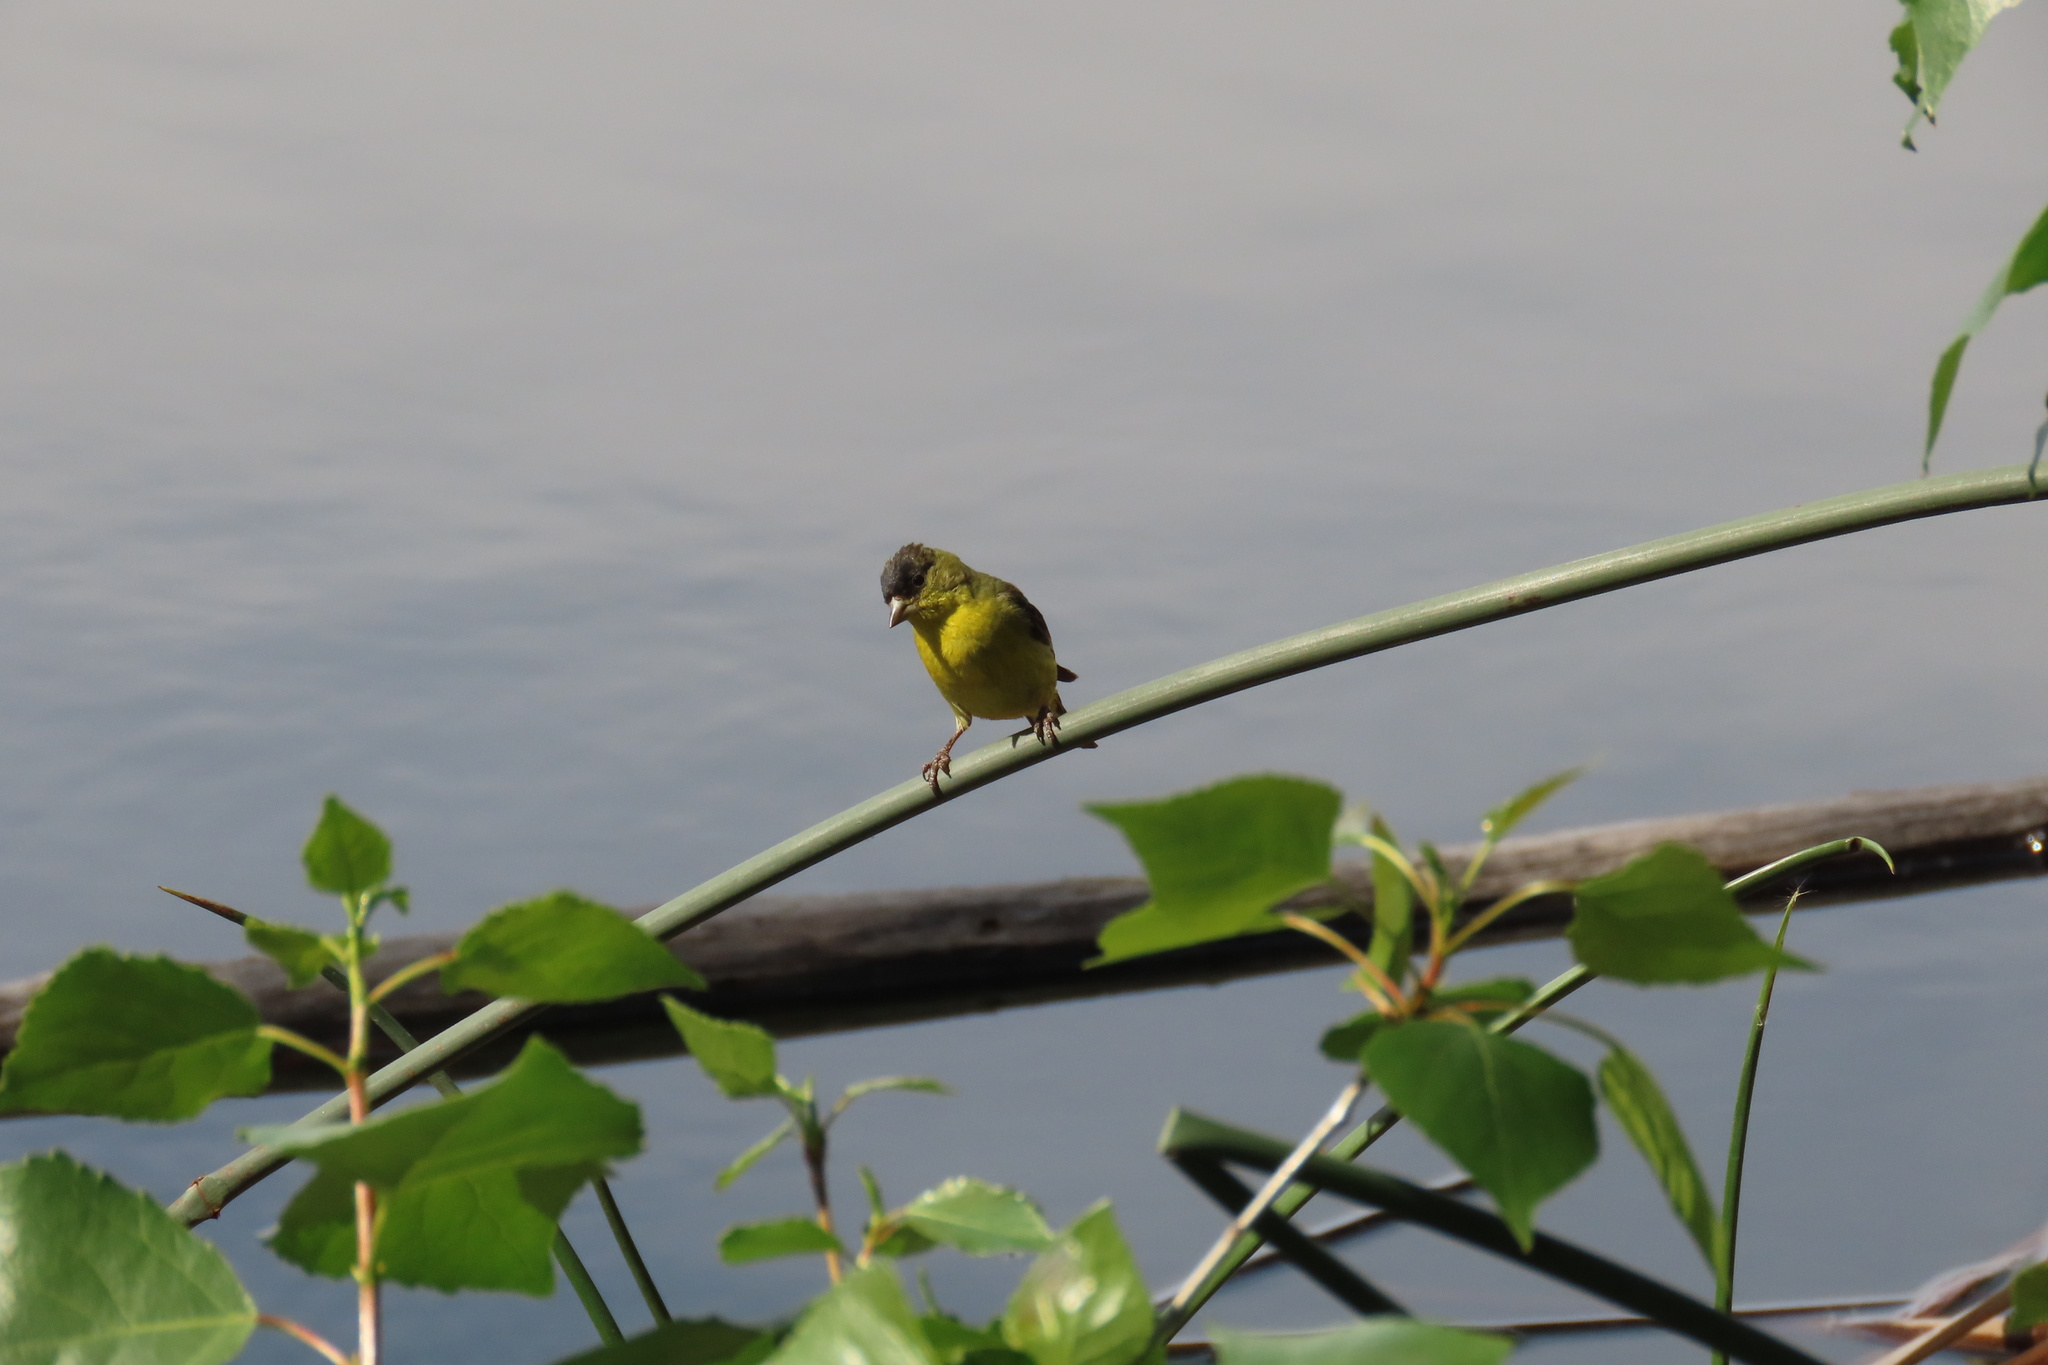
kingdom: Animalia
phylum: Chordata
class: Aves
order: Passeriformes
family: Fringillidae
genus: Spinus
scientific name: Spinus psaltria
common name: Lesser goldfinch
